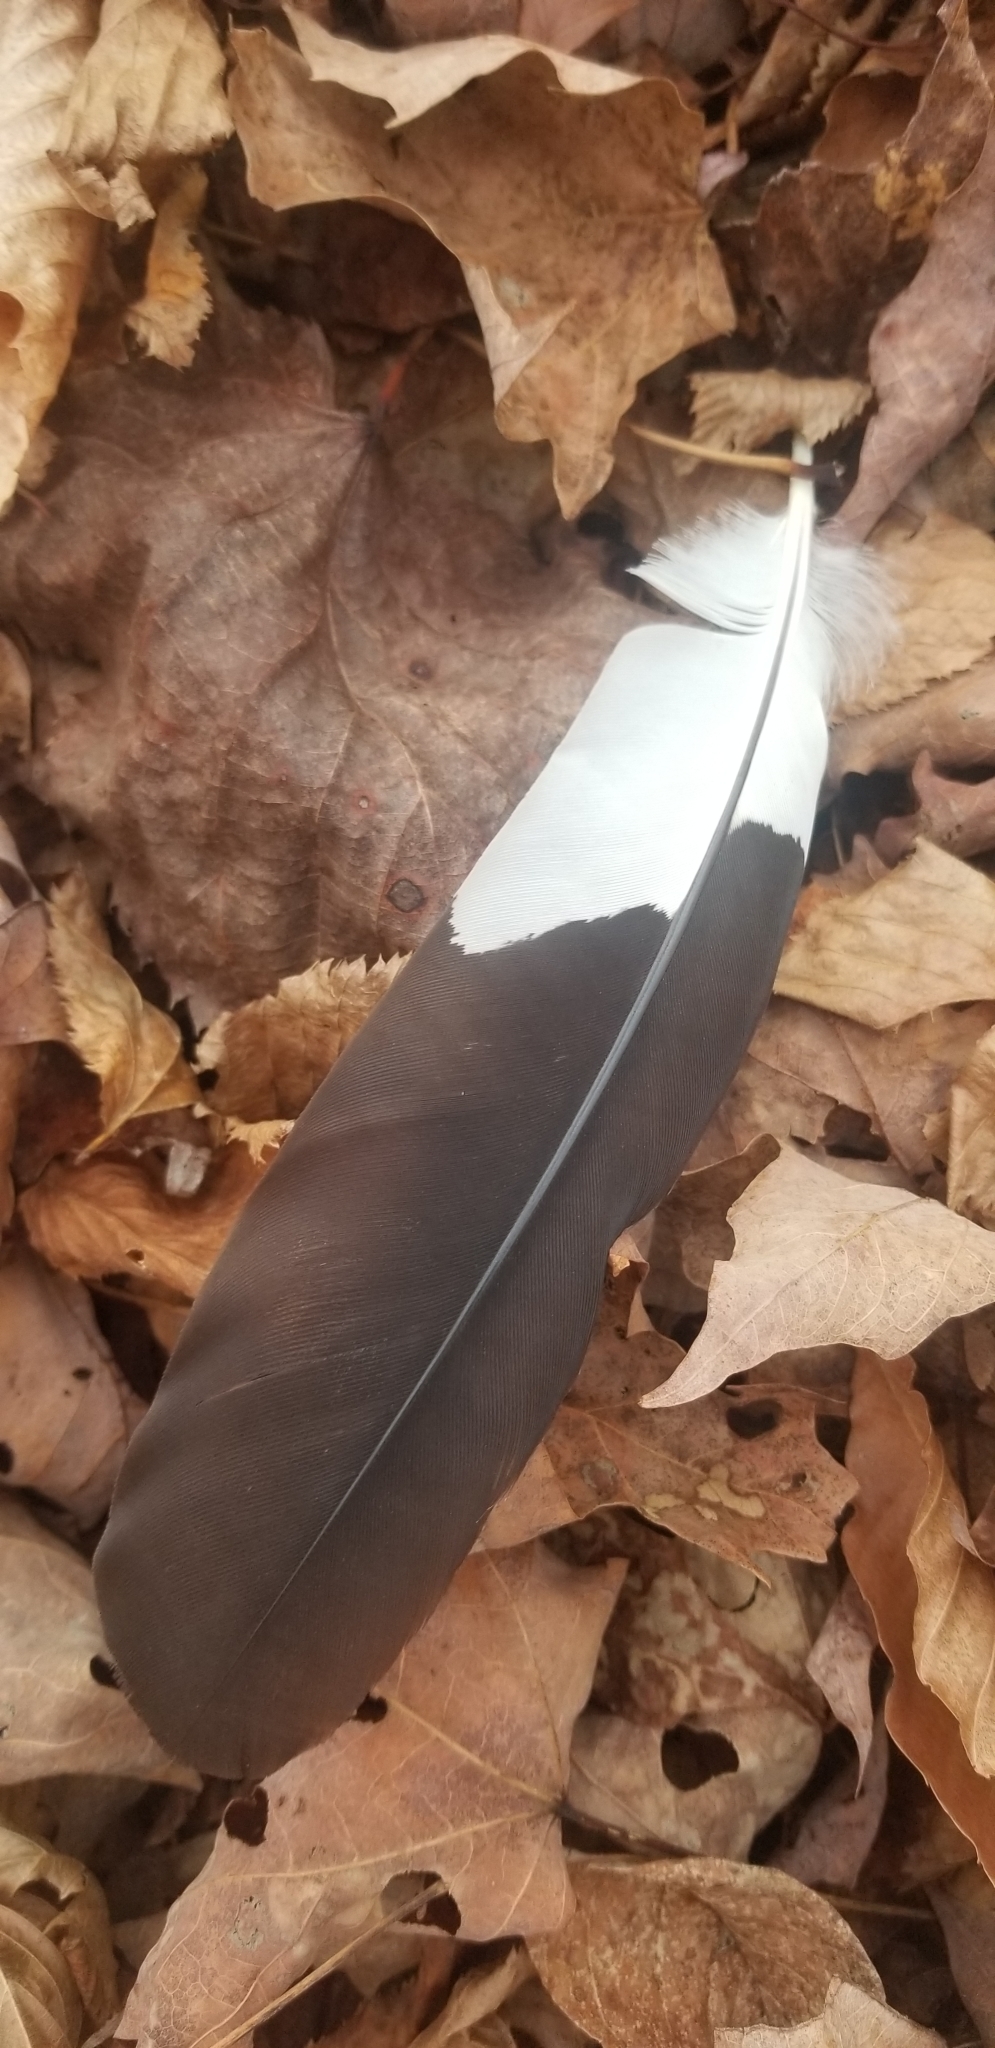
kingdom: Animalia
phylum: Chordata
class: Aves
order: Piciformes
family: Picidae
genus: Dryocopus
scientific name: Dryocopus pileatus
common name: Pileated woodpecker
